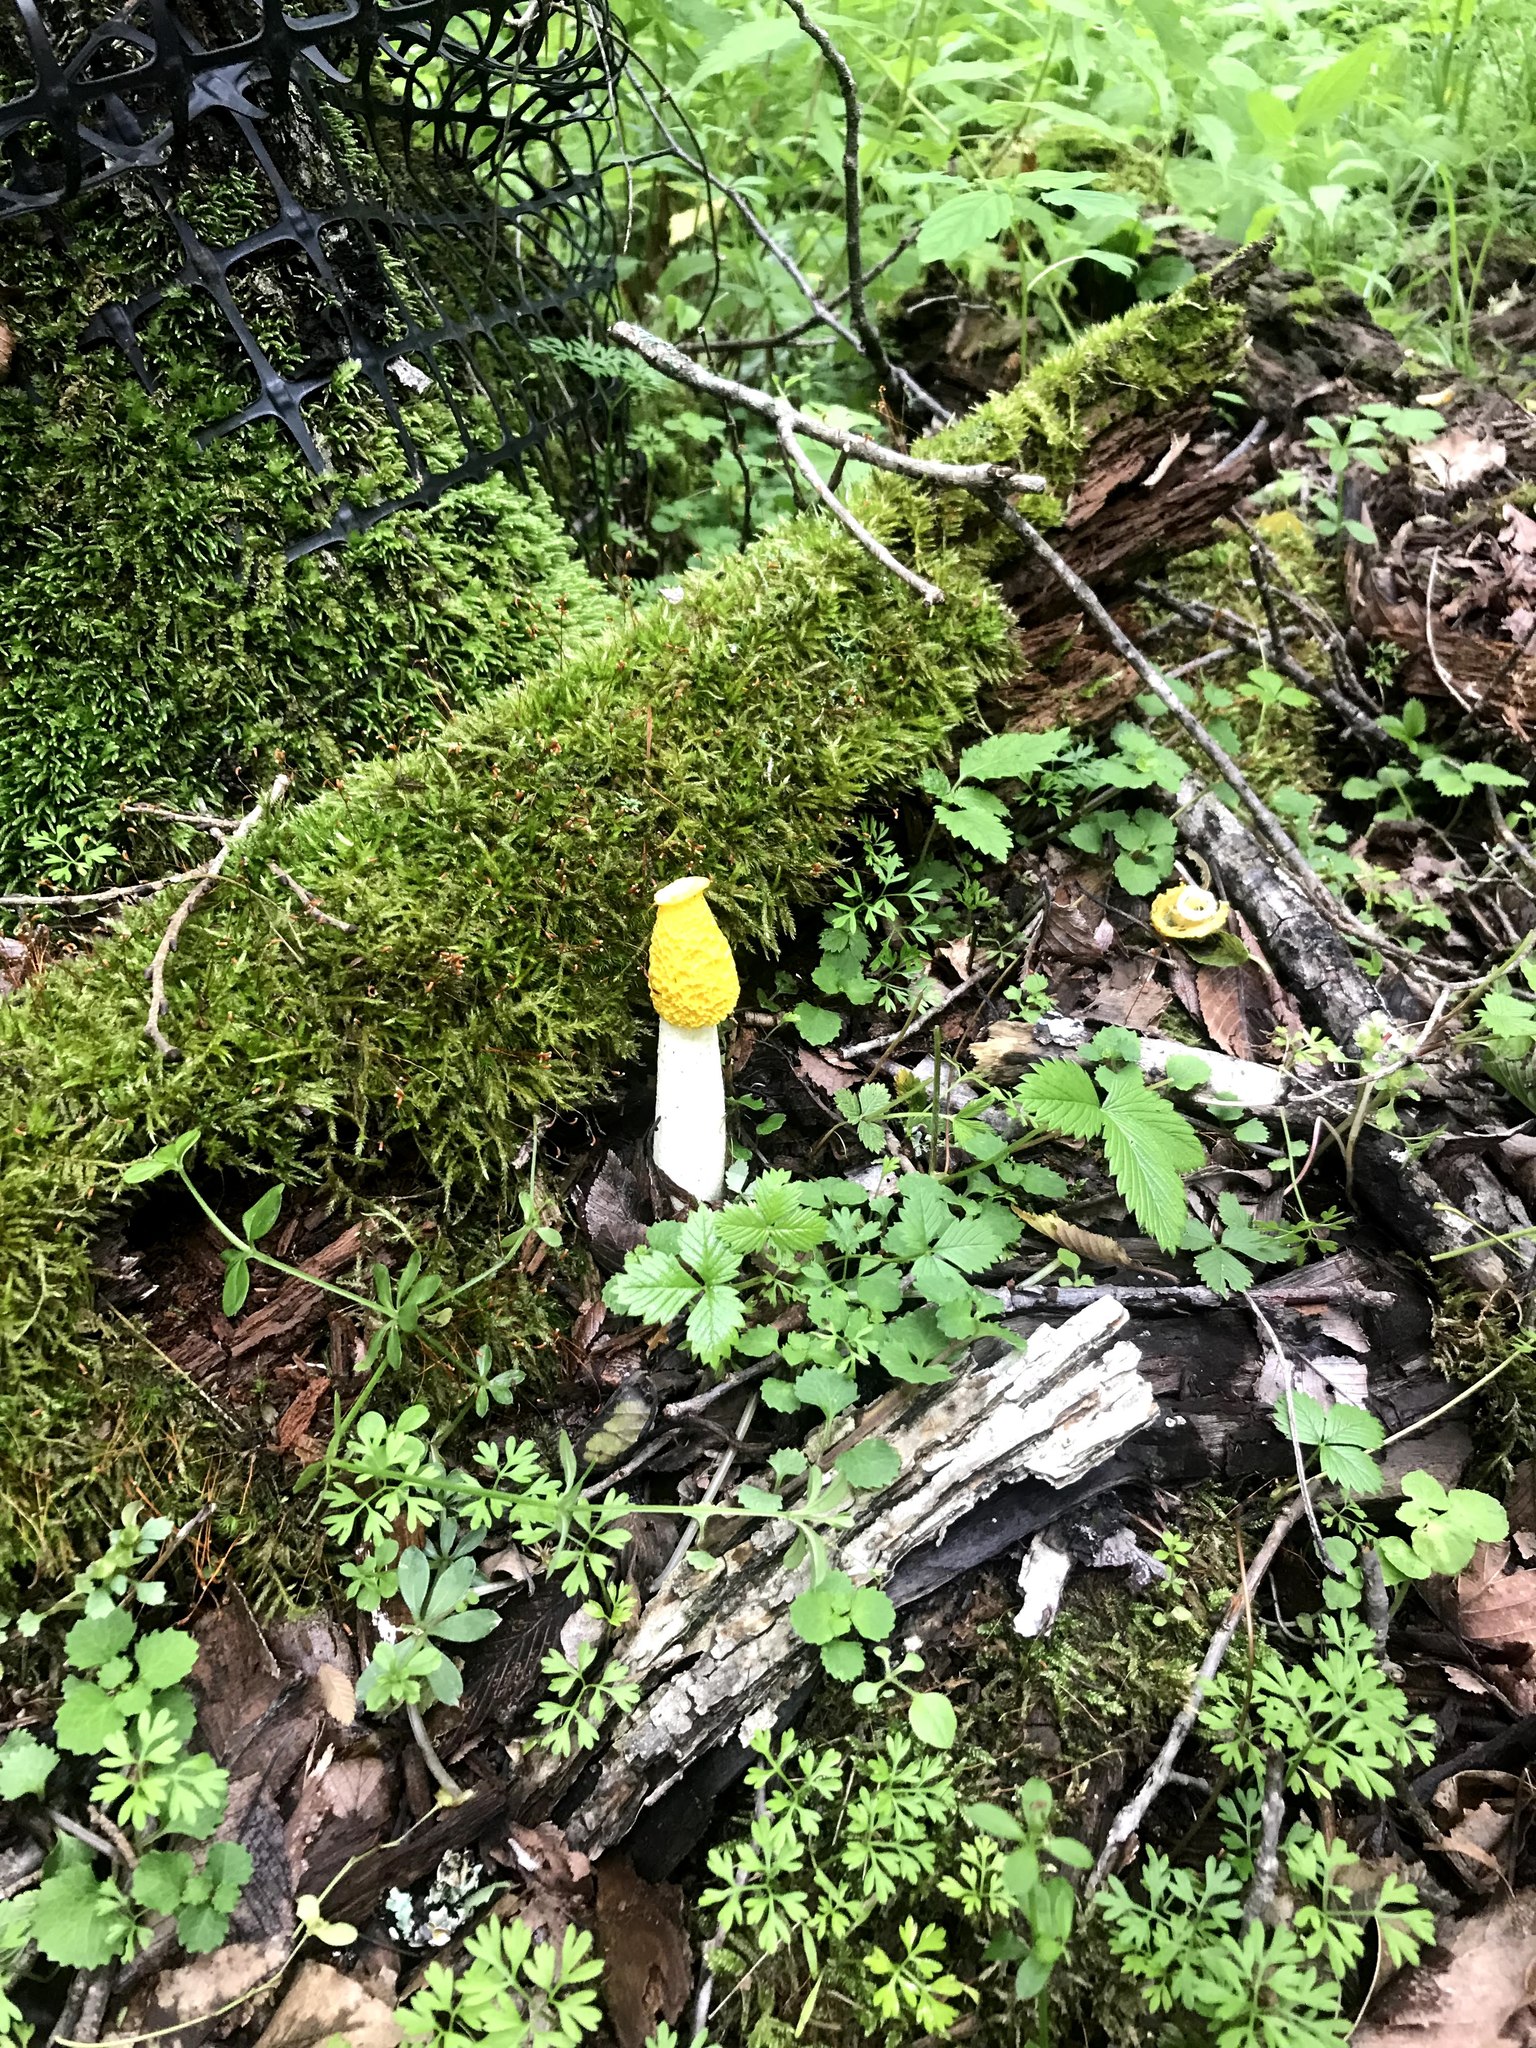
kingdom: Fungi
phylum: Basidiomycota
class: Agaricomycetes
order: Phallales
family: Phallaceae
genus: Phallus
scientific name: Phallus flavocostatus
